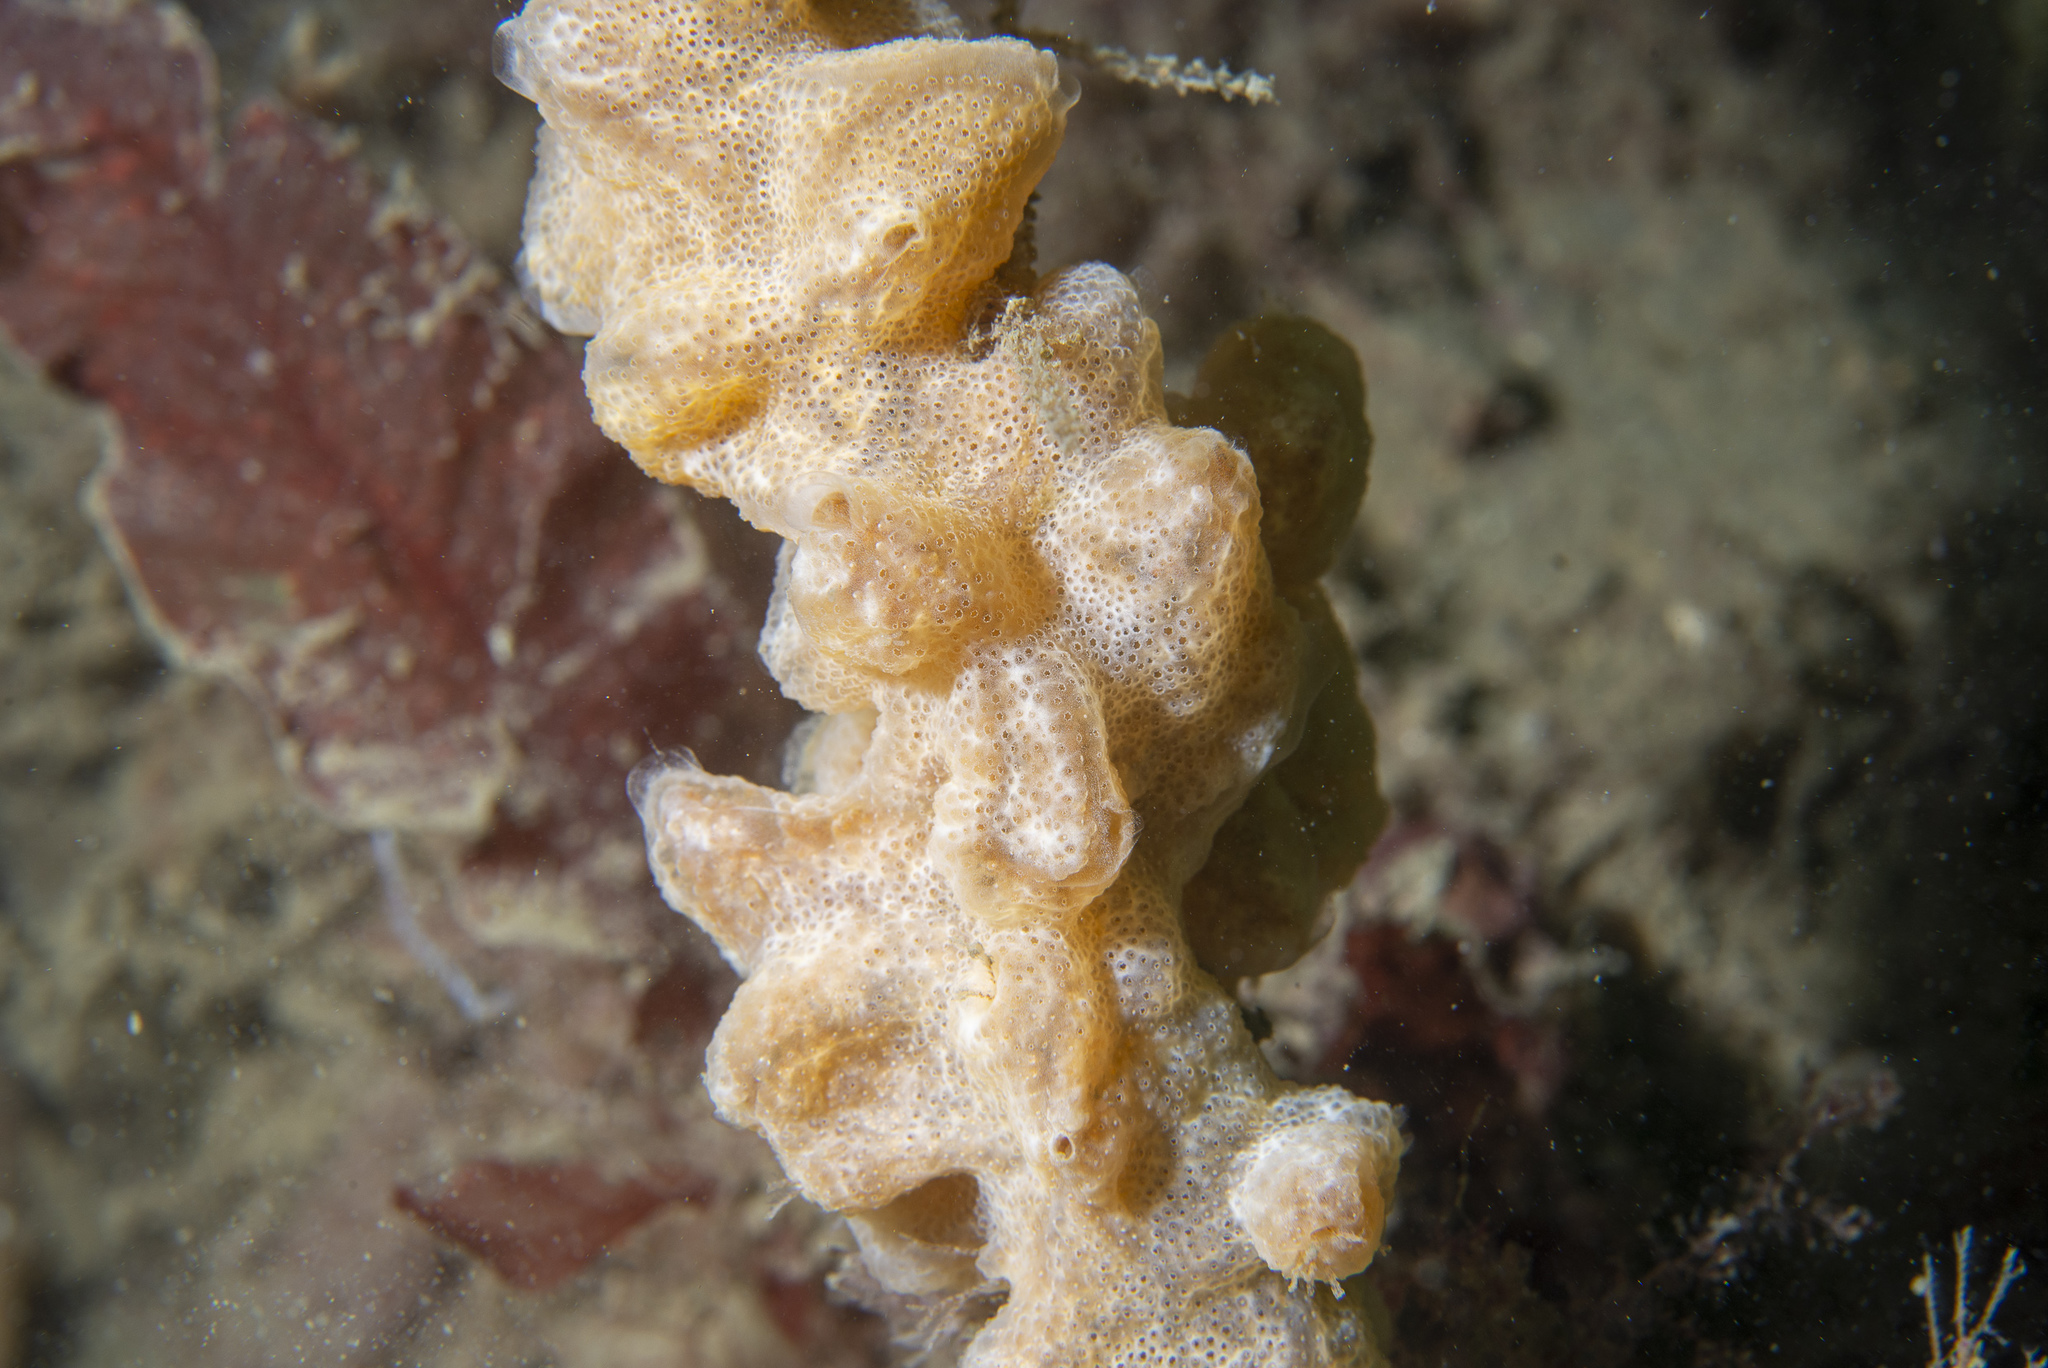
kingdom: Animalia
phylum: Chordata
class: Ascidiacea
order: Aplousobranchia
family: Didemnidae
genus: Trididemnum
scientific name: Trididemnum cereum
